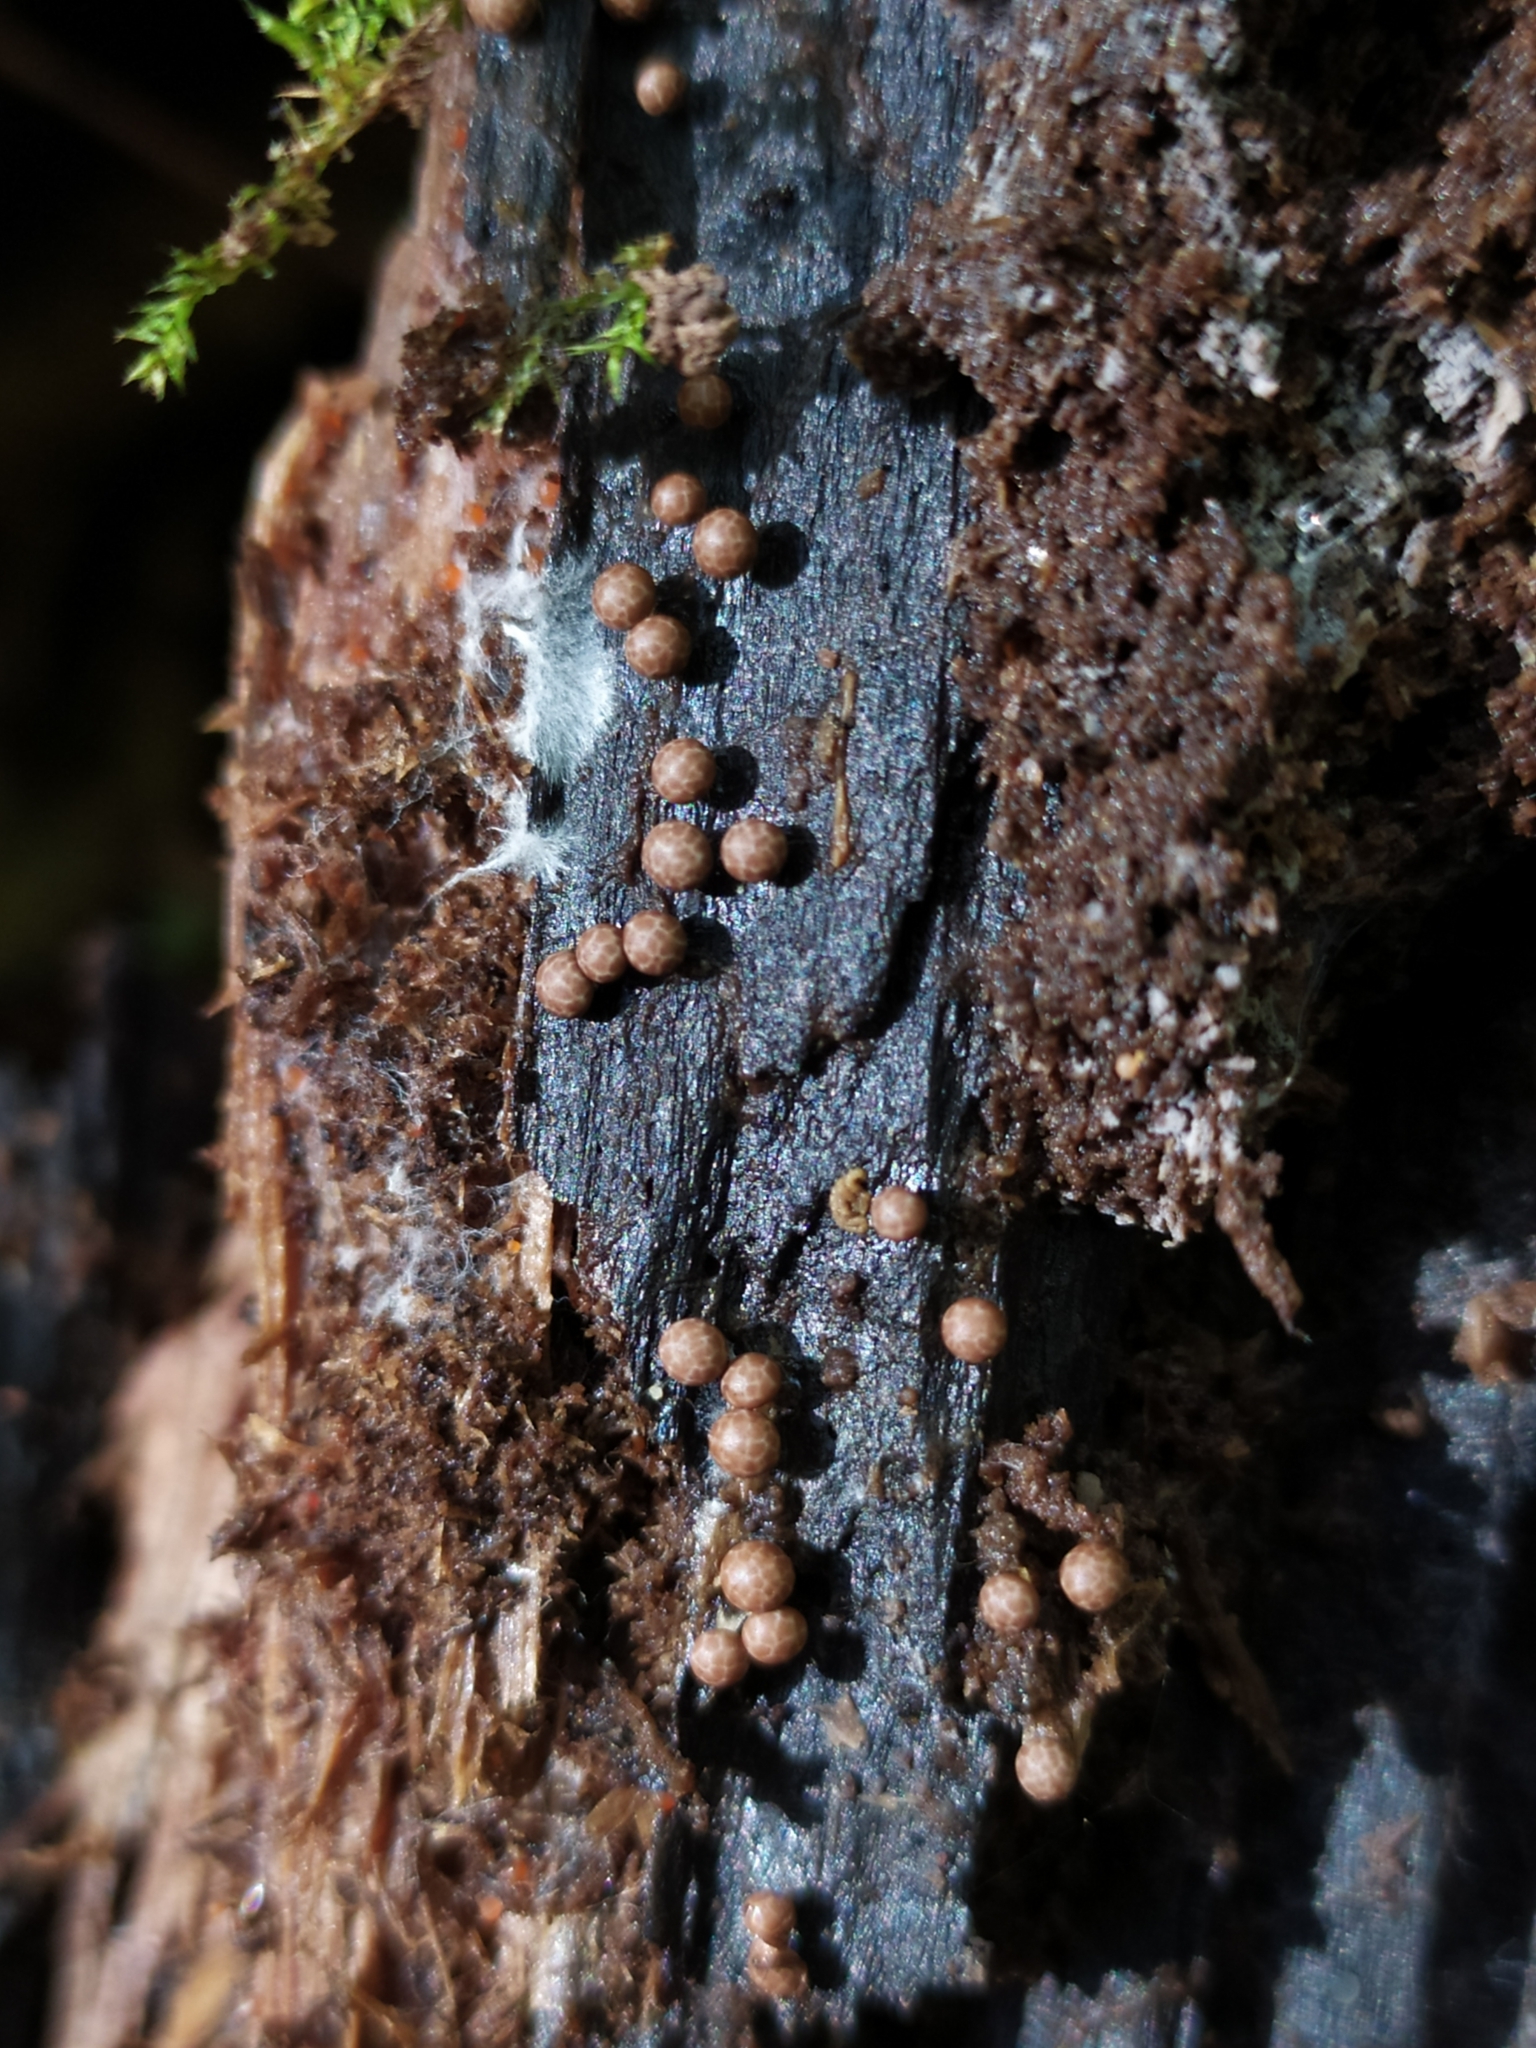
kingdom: Protozoa
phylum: Mycetozoa
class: Myxomycetes
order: Physarales
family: Didymiaceae
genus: Diderma
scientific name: Diderma radiatum
